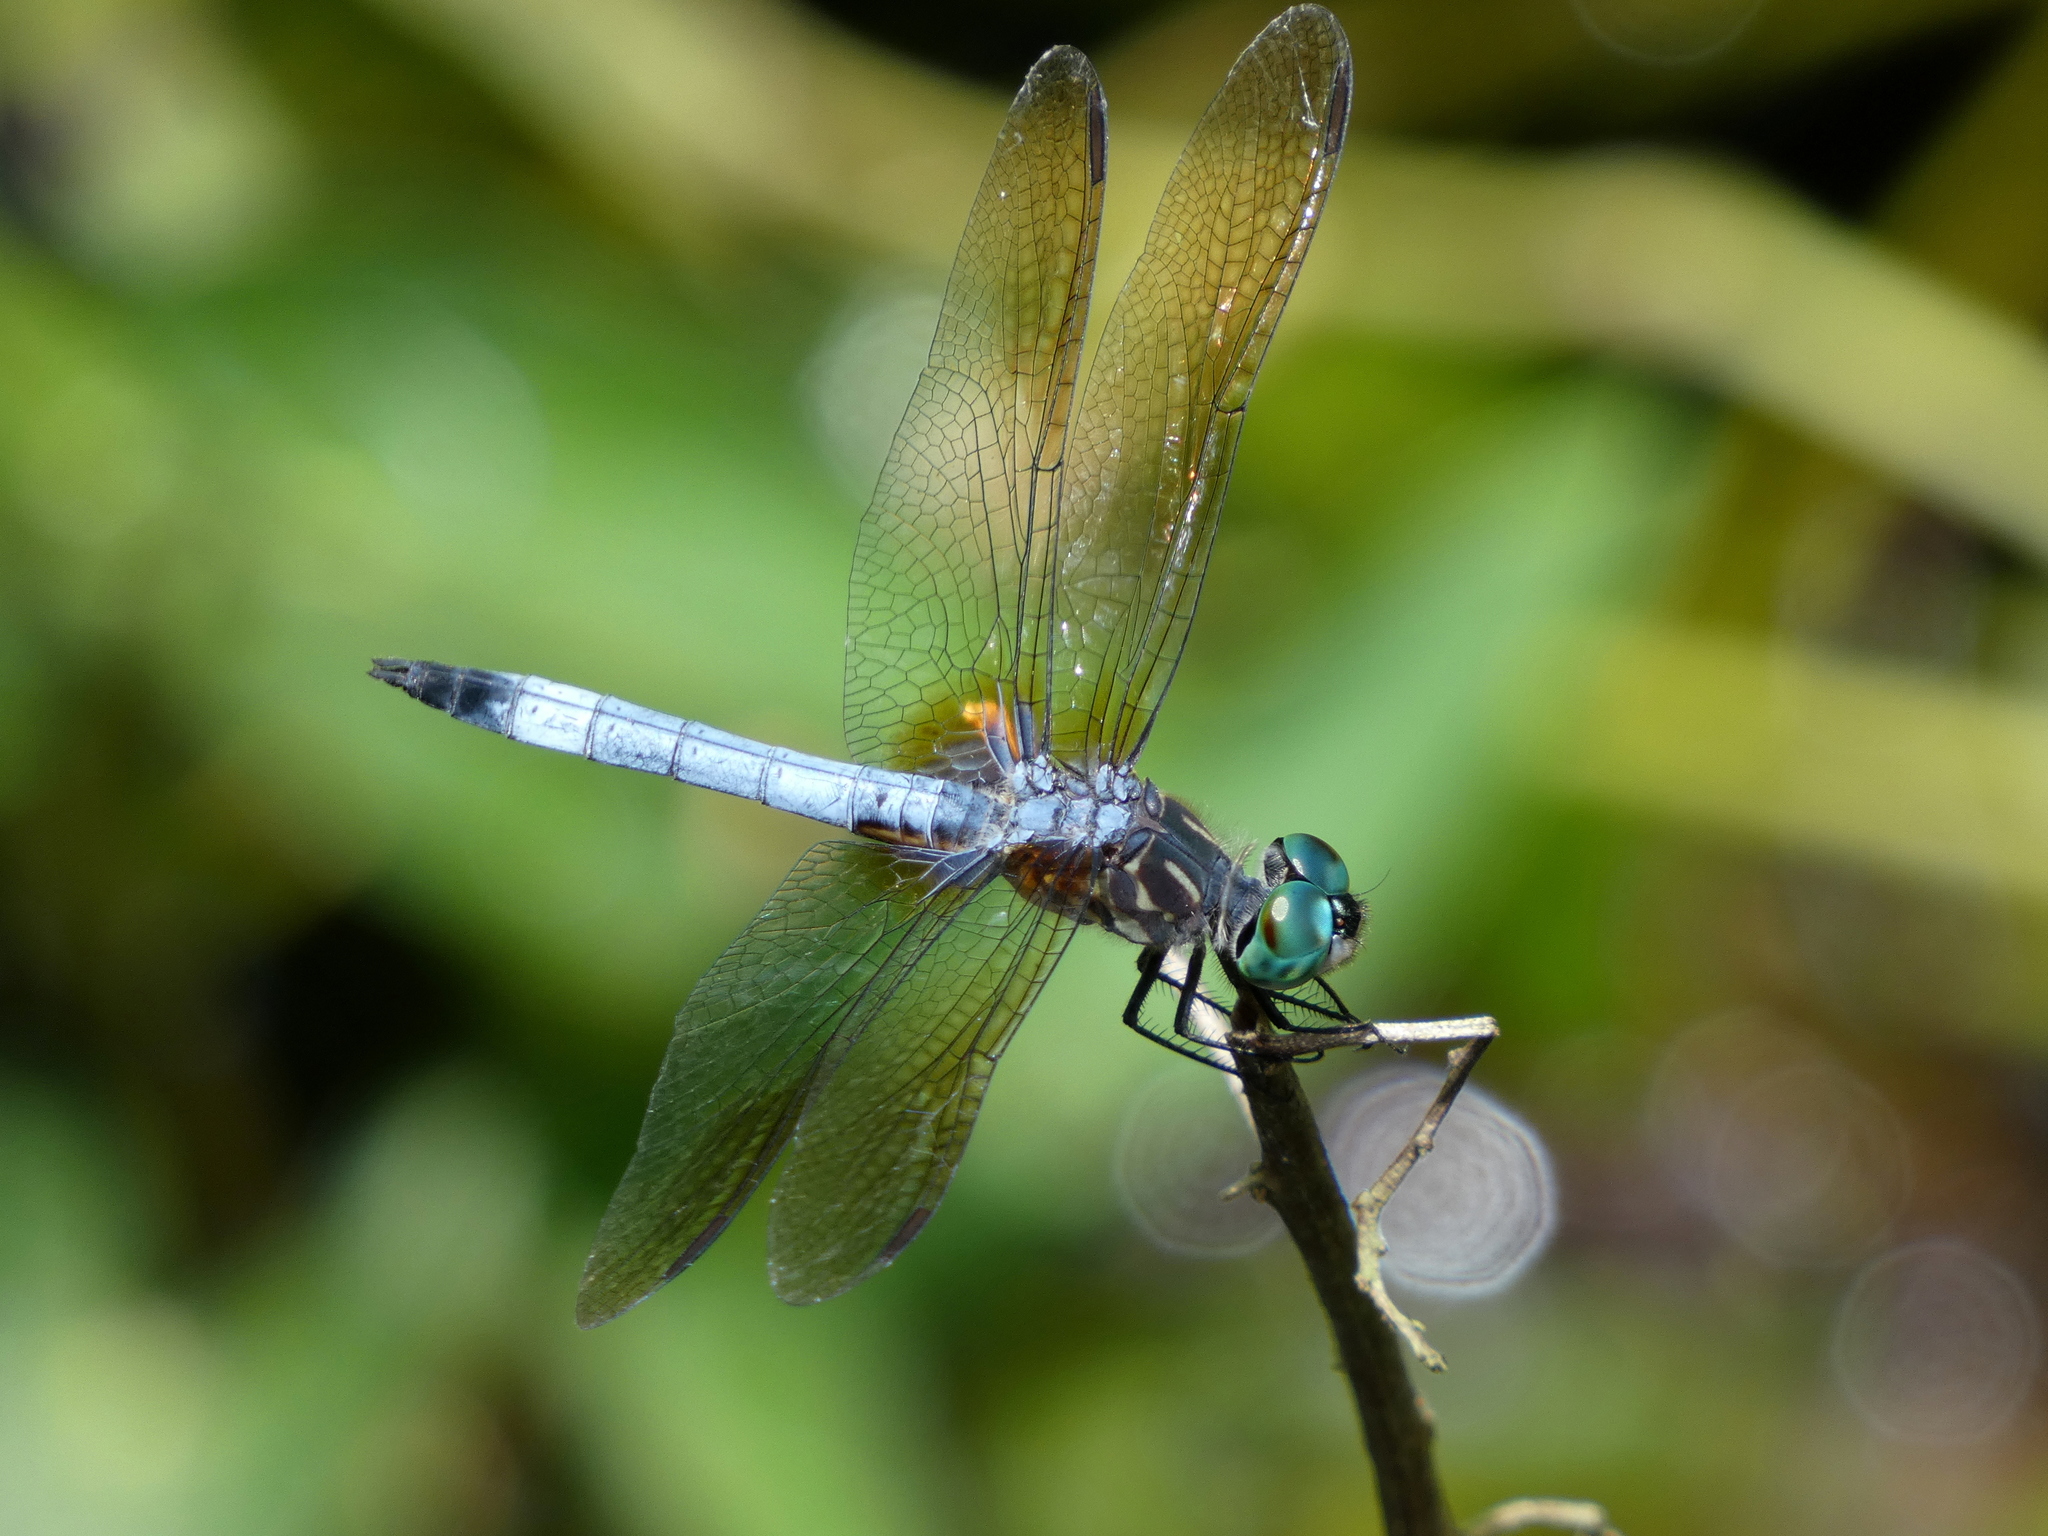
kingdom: Animalia
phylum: Arthropoda
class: Insecta
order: Odonata
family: Libellulidae
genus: Pachydiplax
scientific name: Pachydiplax longipennis
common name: Blue dasher
